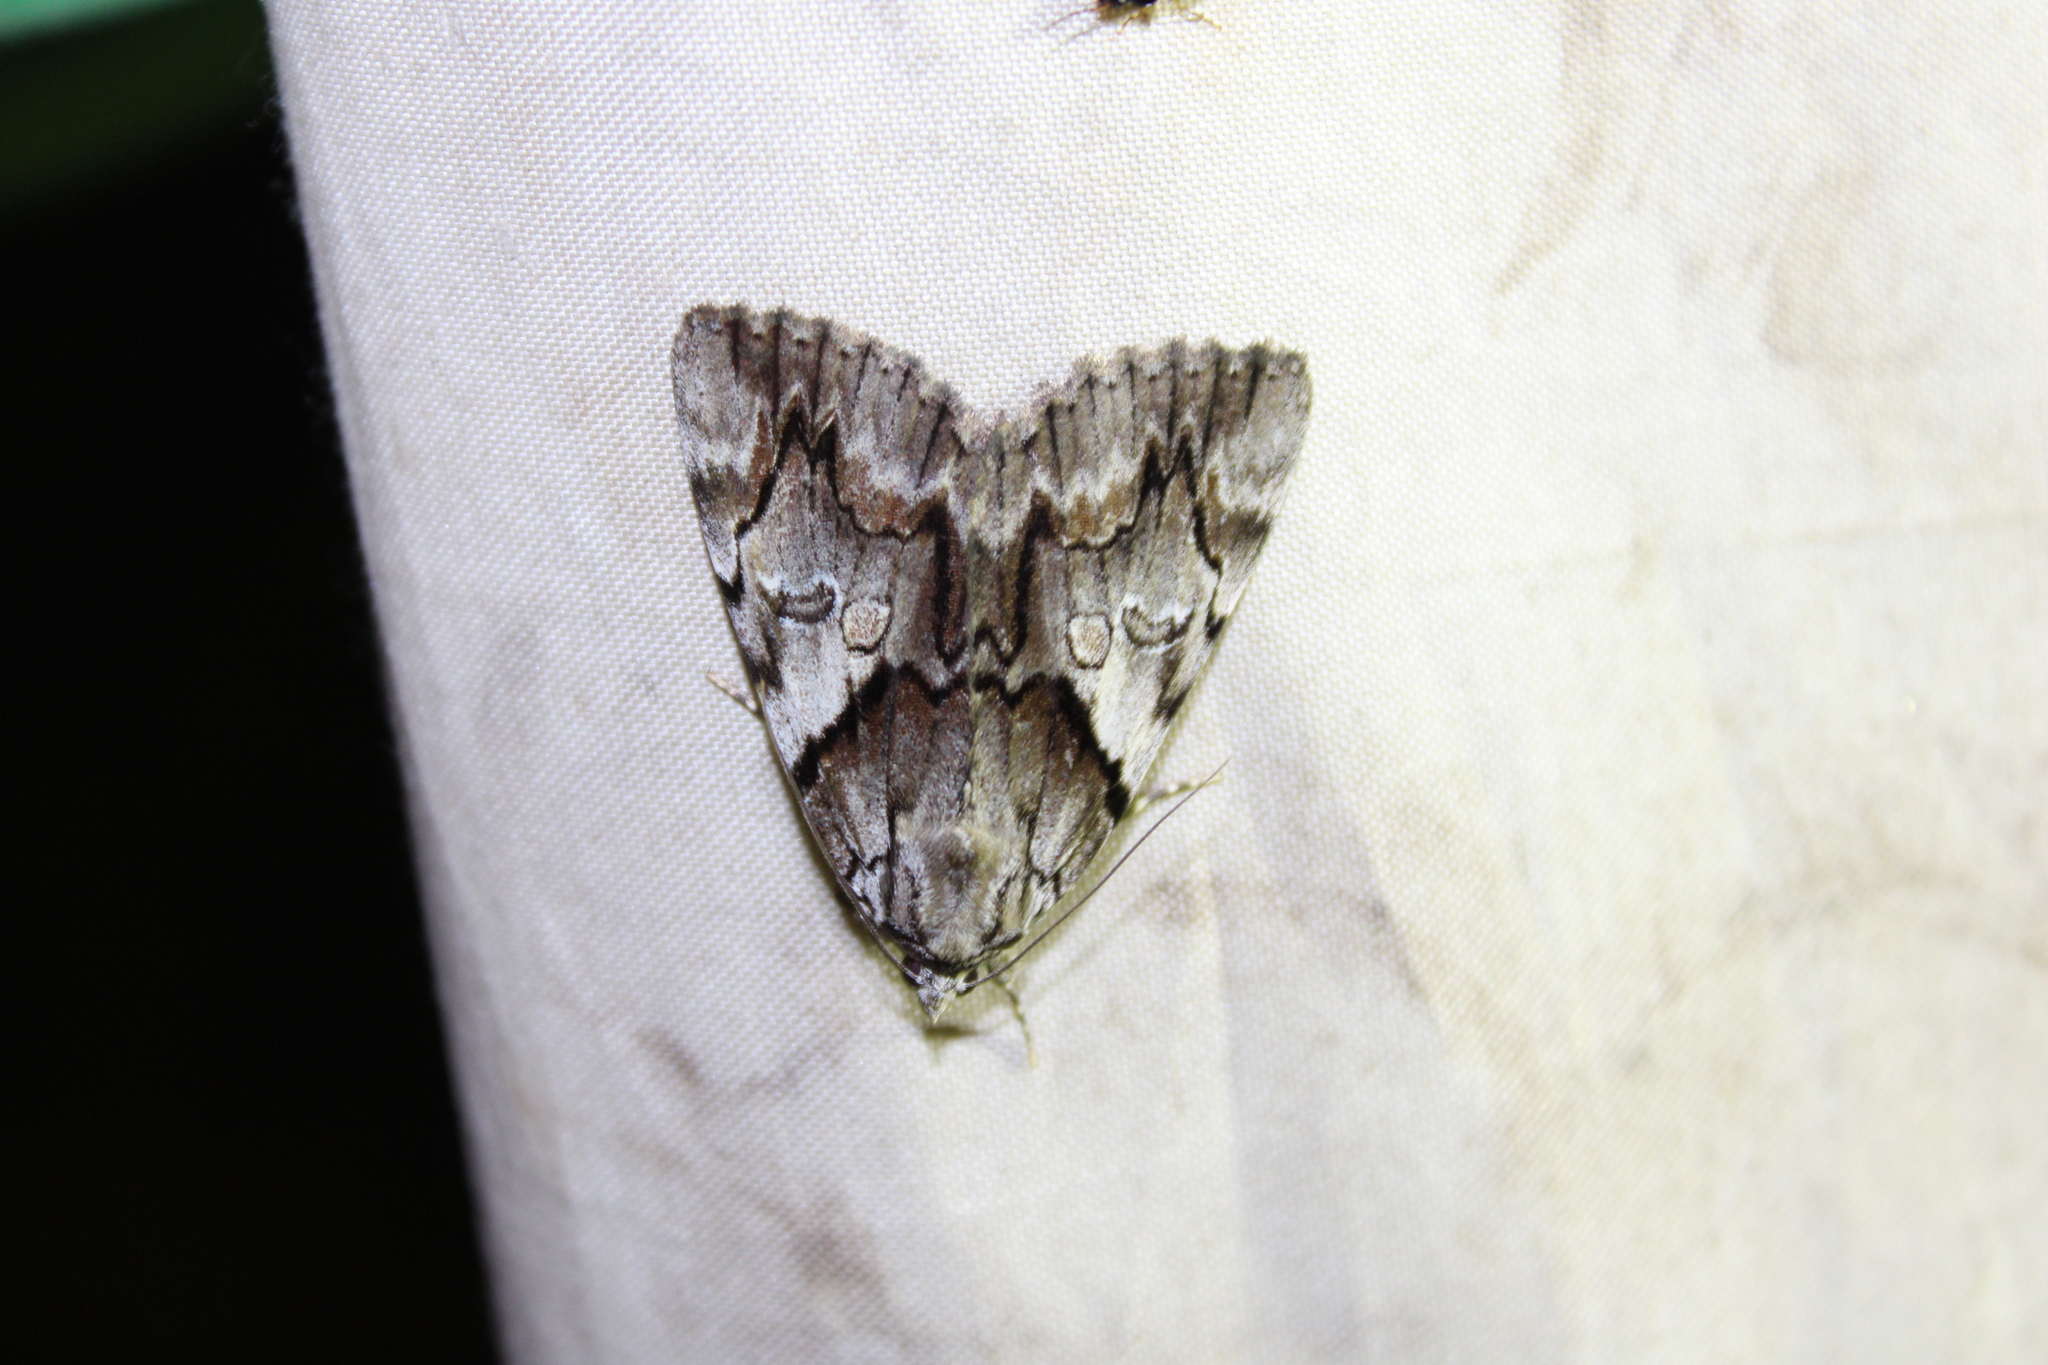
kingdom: Animalia
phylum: Arthropoda
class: Insecta
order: Lepidoptera
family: Erebidae
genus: Catocala
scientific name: Catocala blandula
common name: Charming underwing
